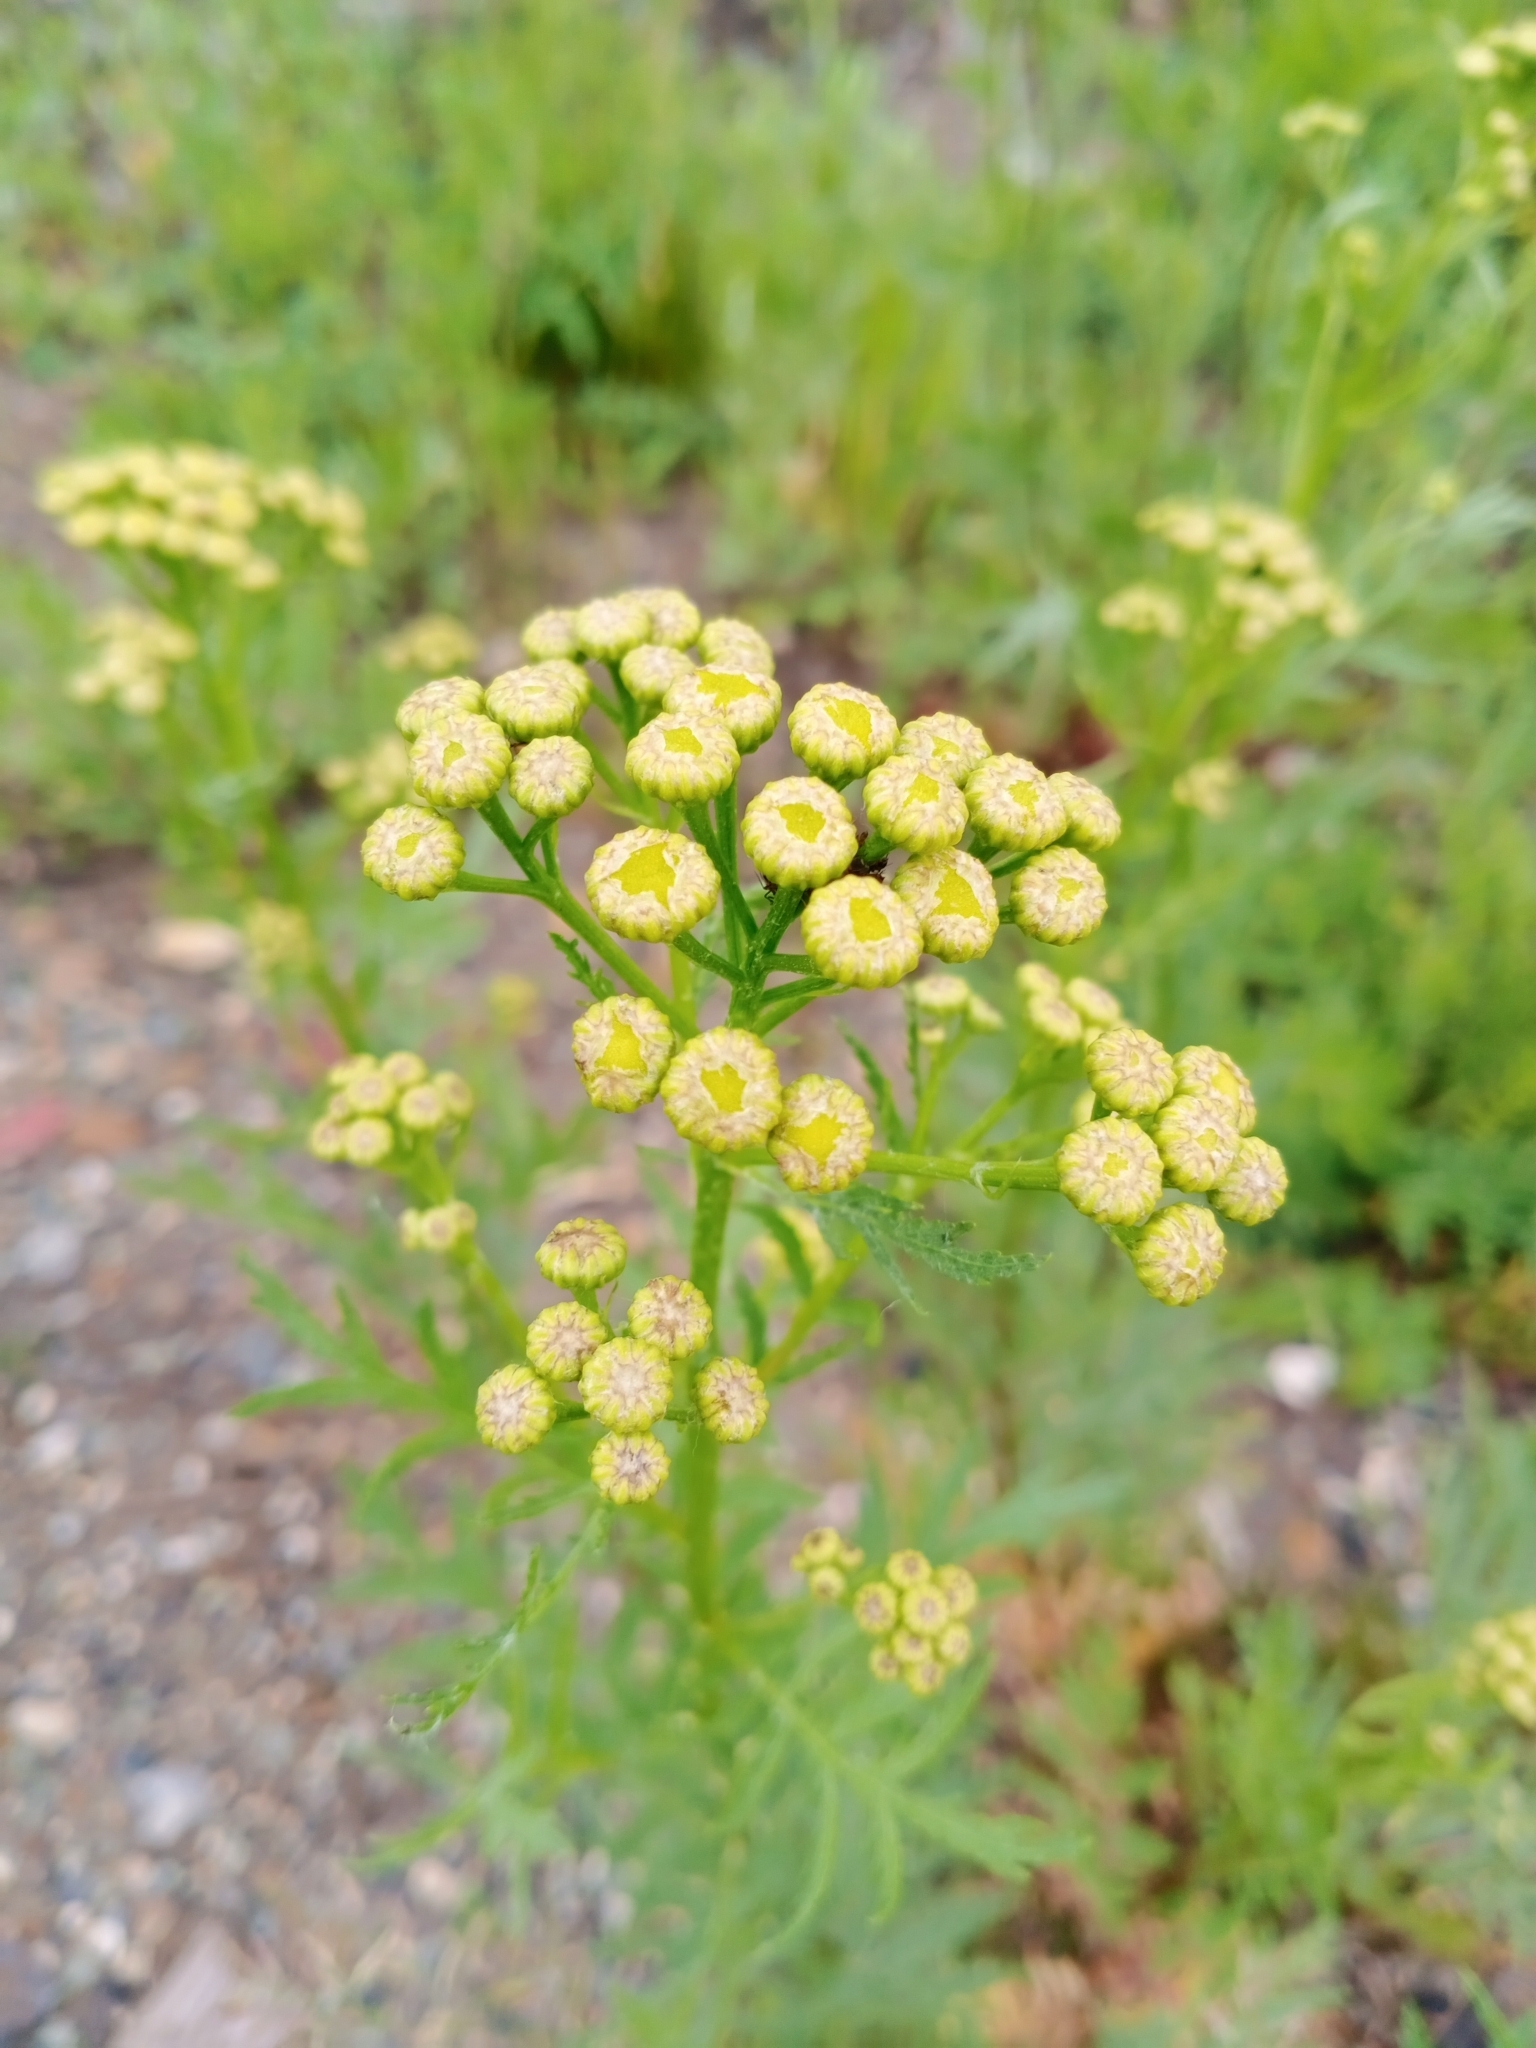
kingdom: Plantae
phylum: Tracheophyta
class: Magnoliopsida
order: Asterales
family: Asteraceae
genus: Tanacetum
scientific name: Tanacetum vulgare
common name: Common tansy
